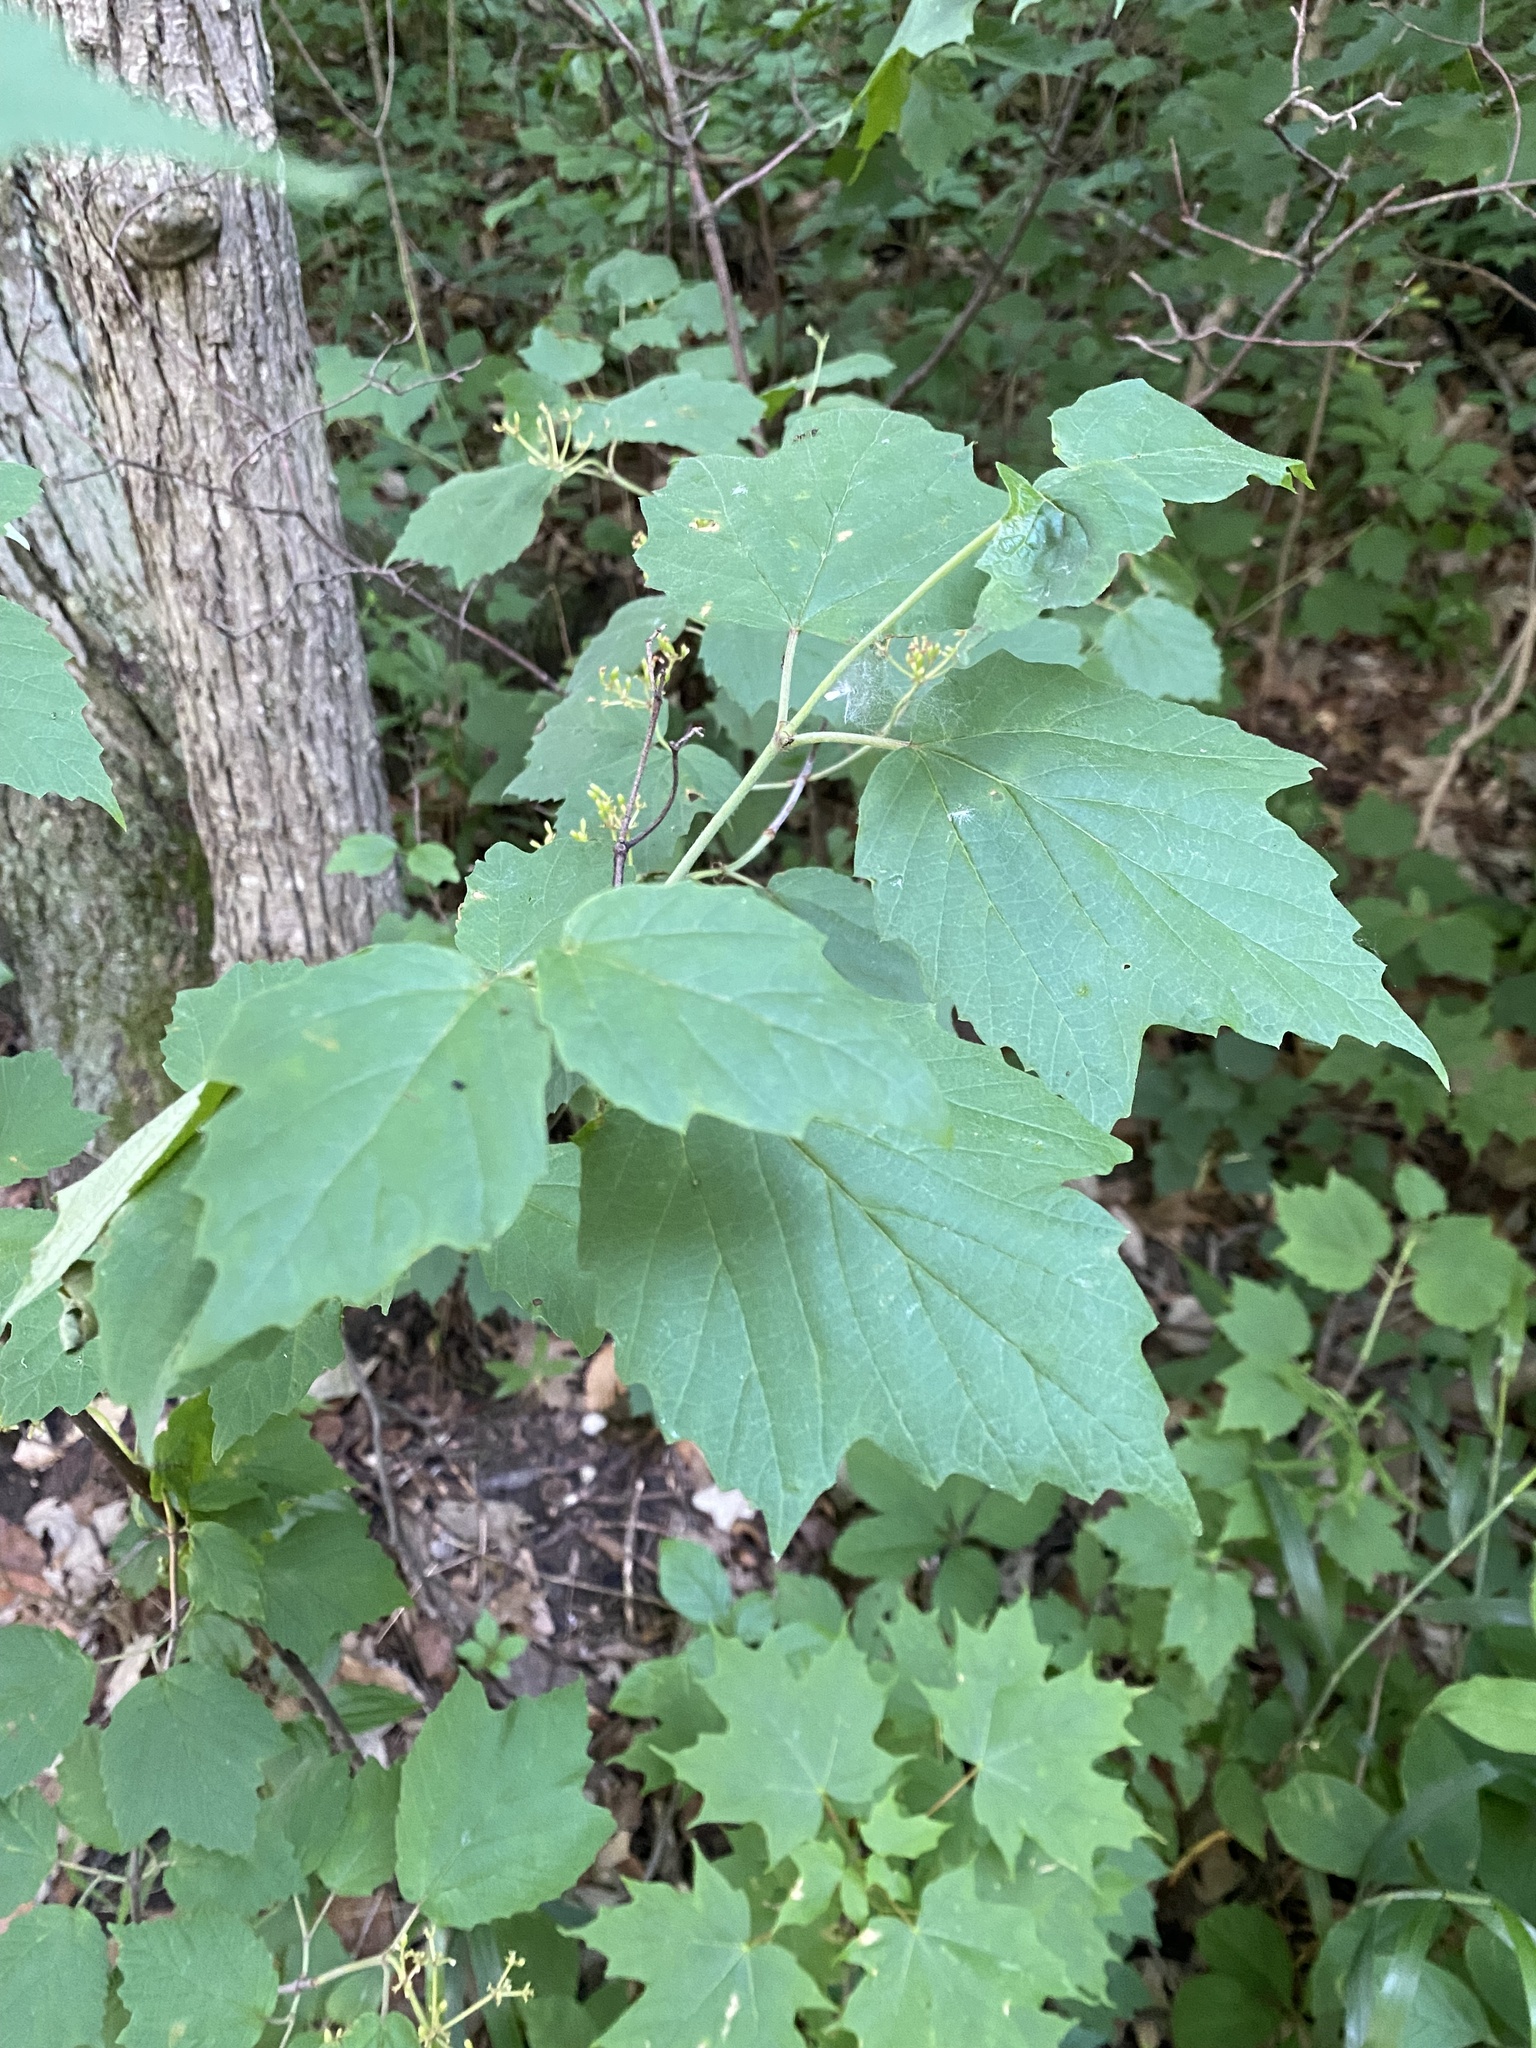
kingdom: Plantae
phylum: Tracheophyta
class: Magnoliopsida
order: Dipsacales
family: Viburnaceae
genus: Viburnum
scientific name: Viburnum acerifolium
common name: Dockmackie
